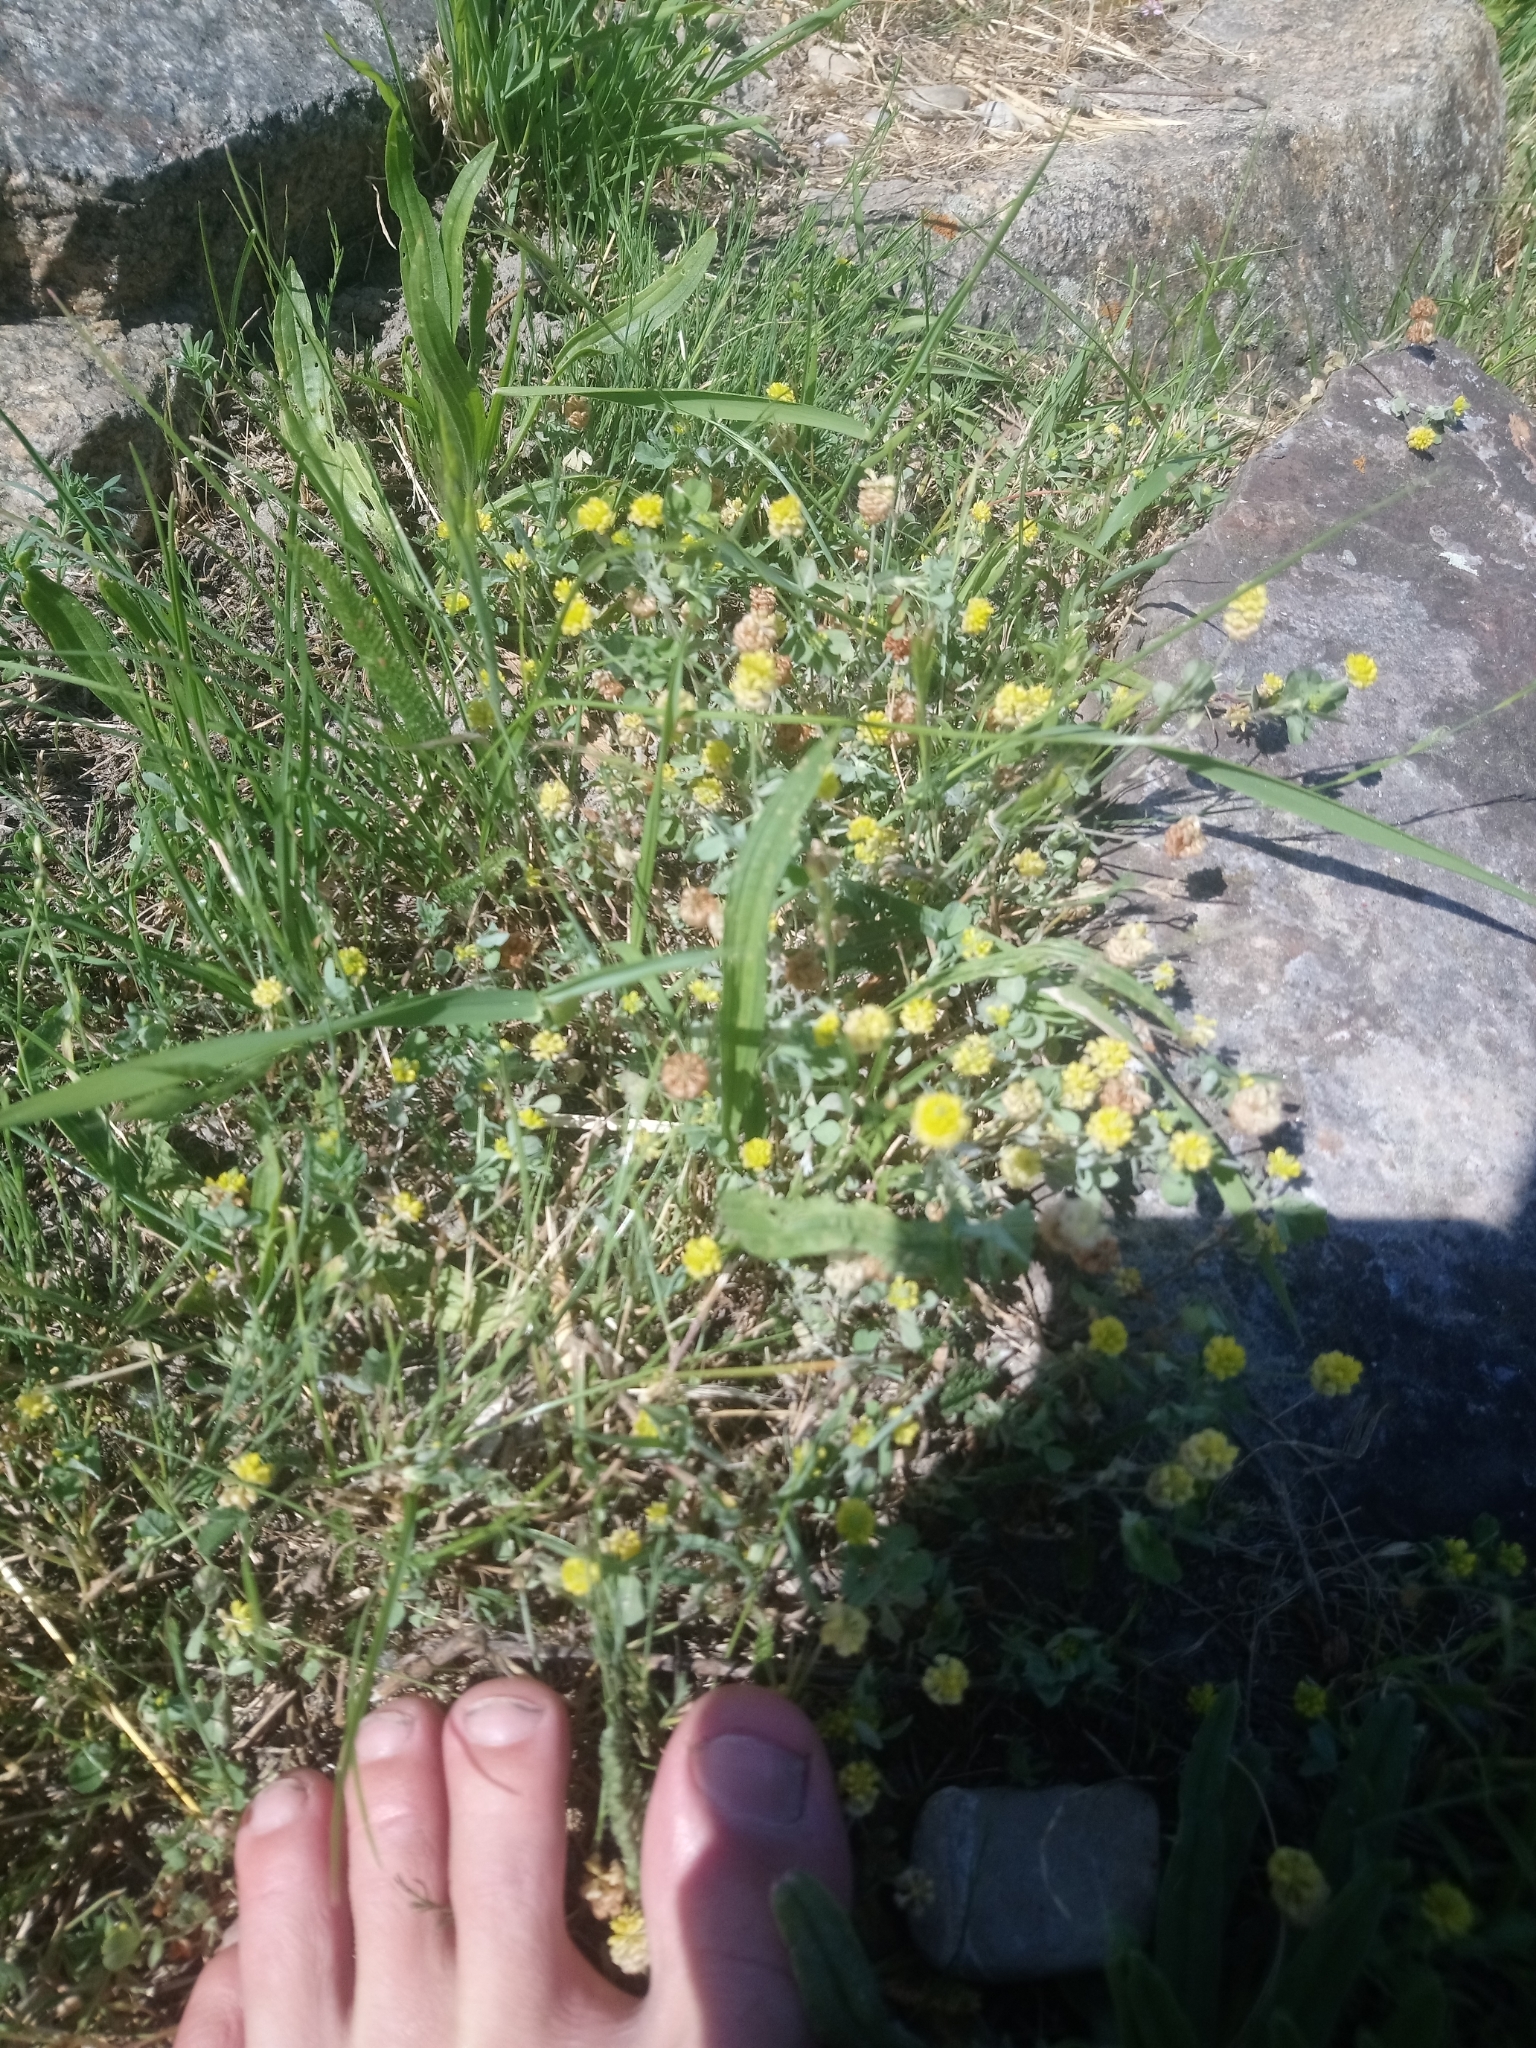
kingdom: Plantae
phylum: Tracheophyta
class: Magnoliopsida
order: Fabales
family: Fabaceae
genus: Trifolium
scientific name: Trifolium campestre
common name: Field clover
